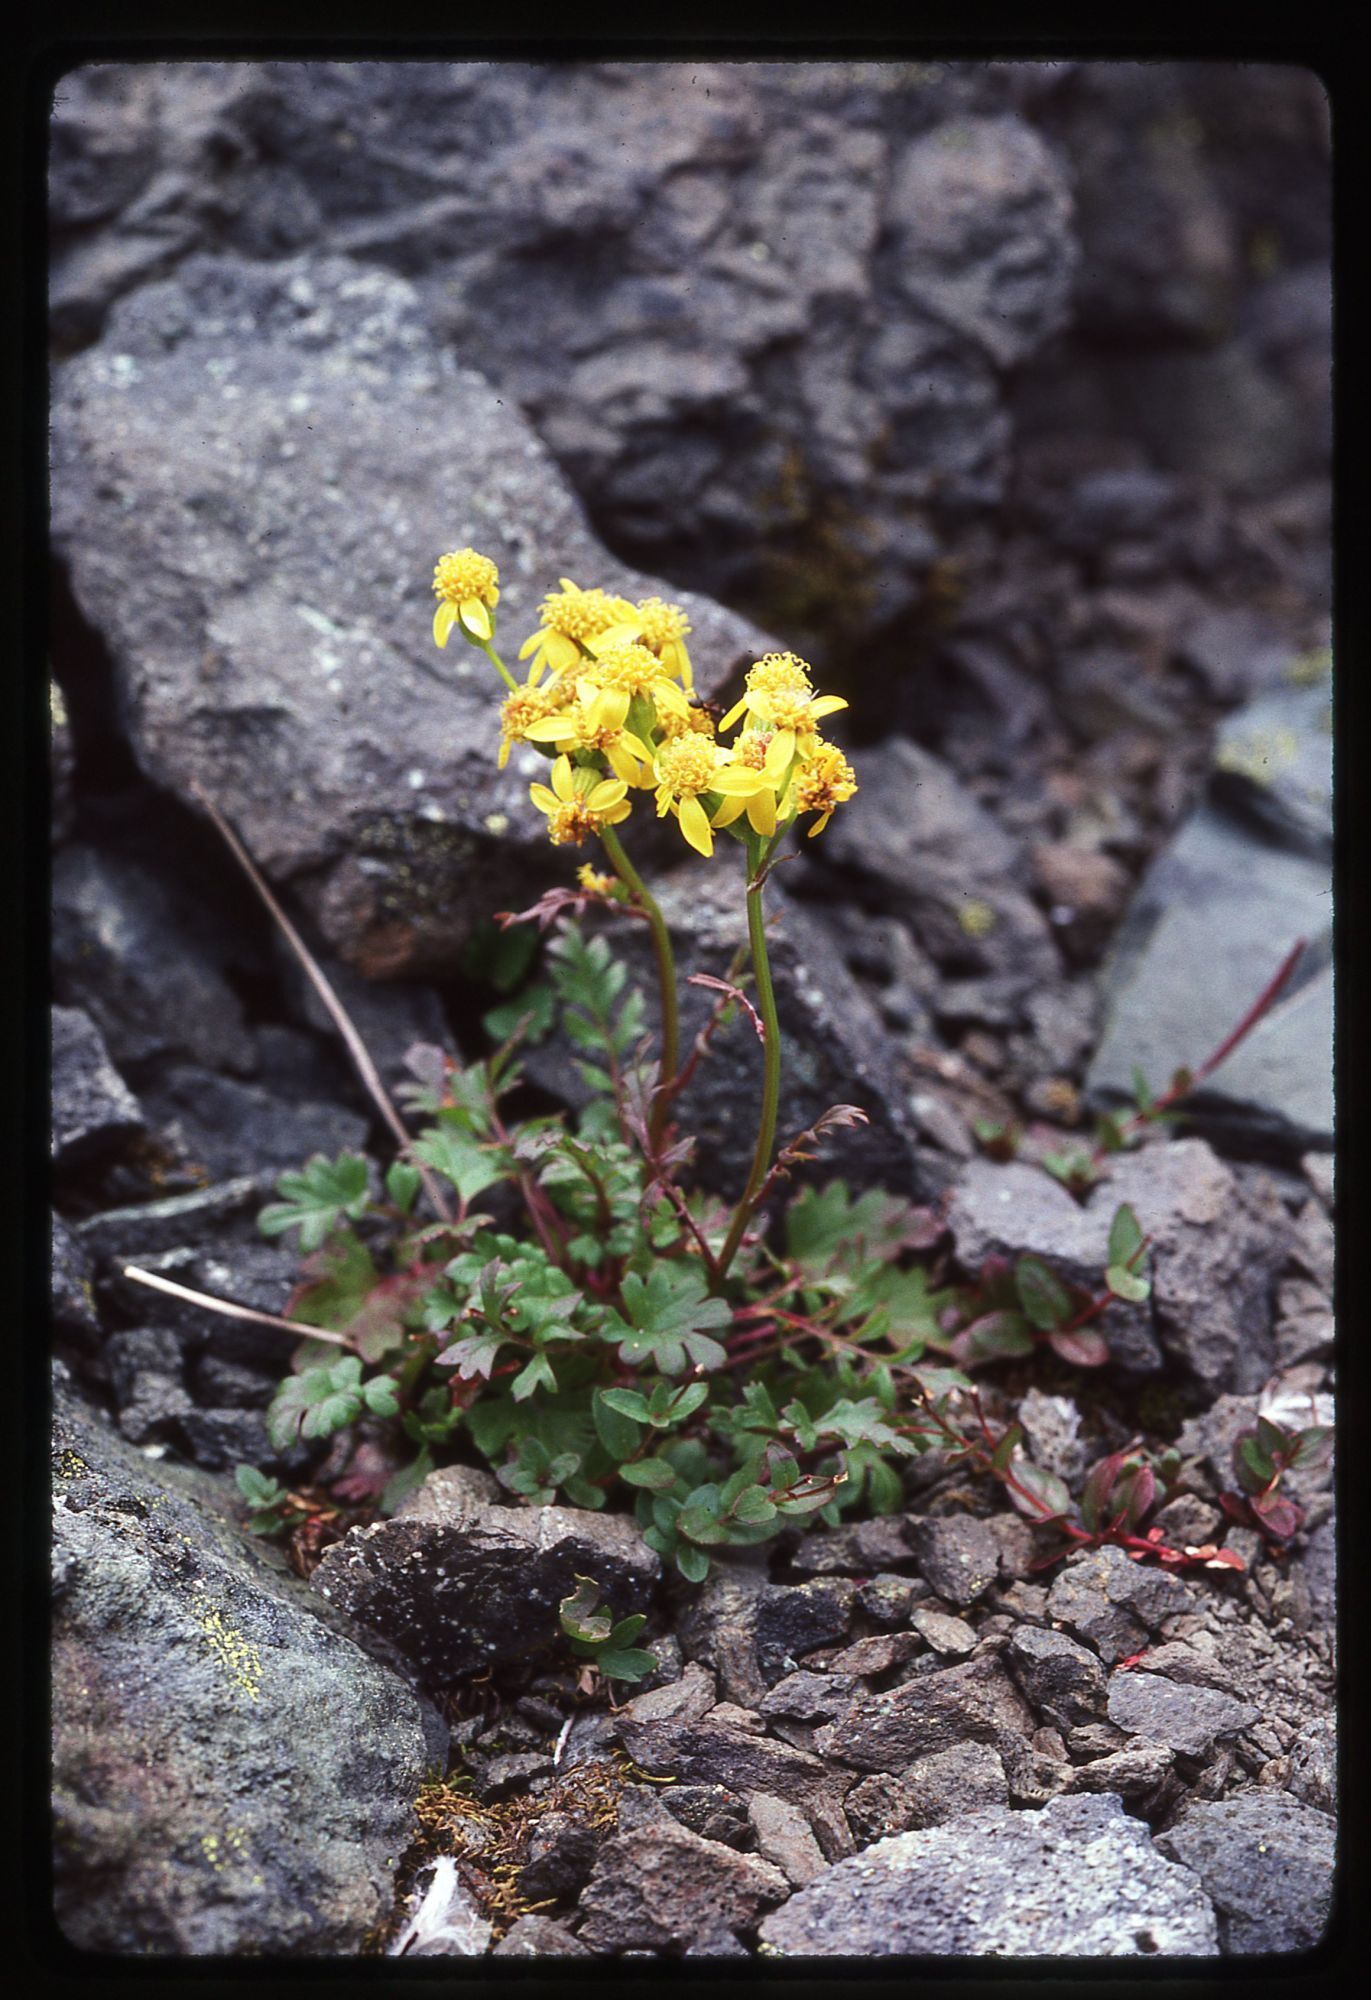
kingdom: Plantae
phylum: Tracheophyta
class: Magnoliopsida
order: Asterales
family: Asteraceae
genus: Packera
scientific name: Packera flettii
